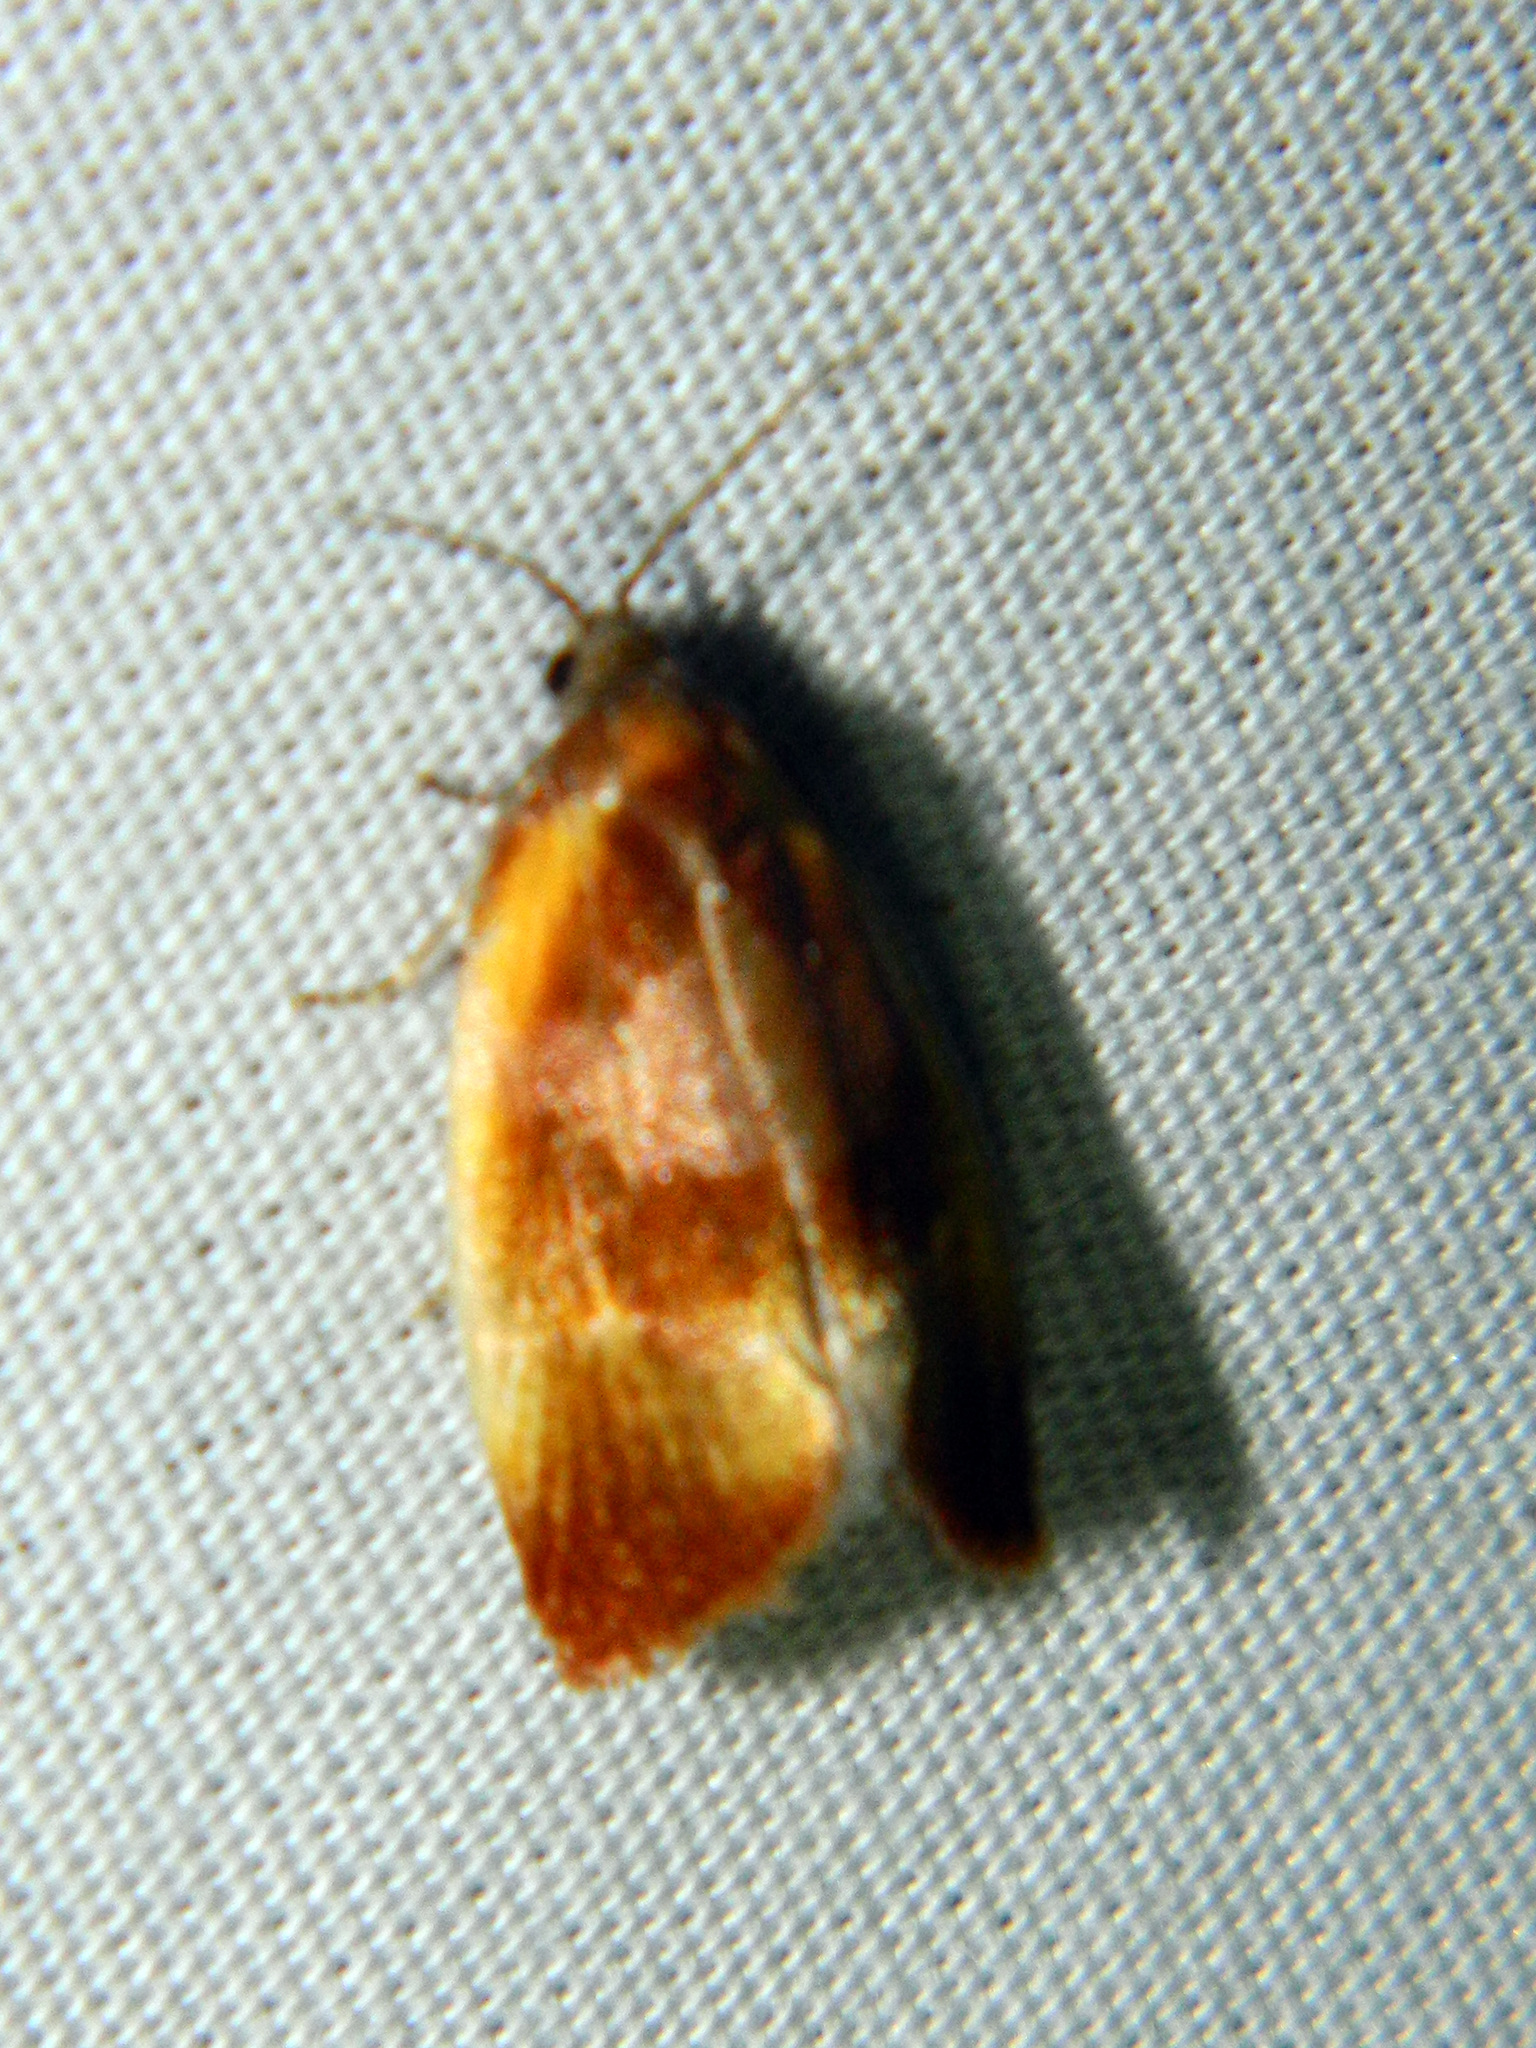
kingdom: Animalia
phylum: Arthropoda
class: Insecta
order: Lepidoptera
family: Tortricidae
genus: Eulia
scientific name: Eulia ministrana
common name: Brassy twist
